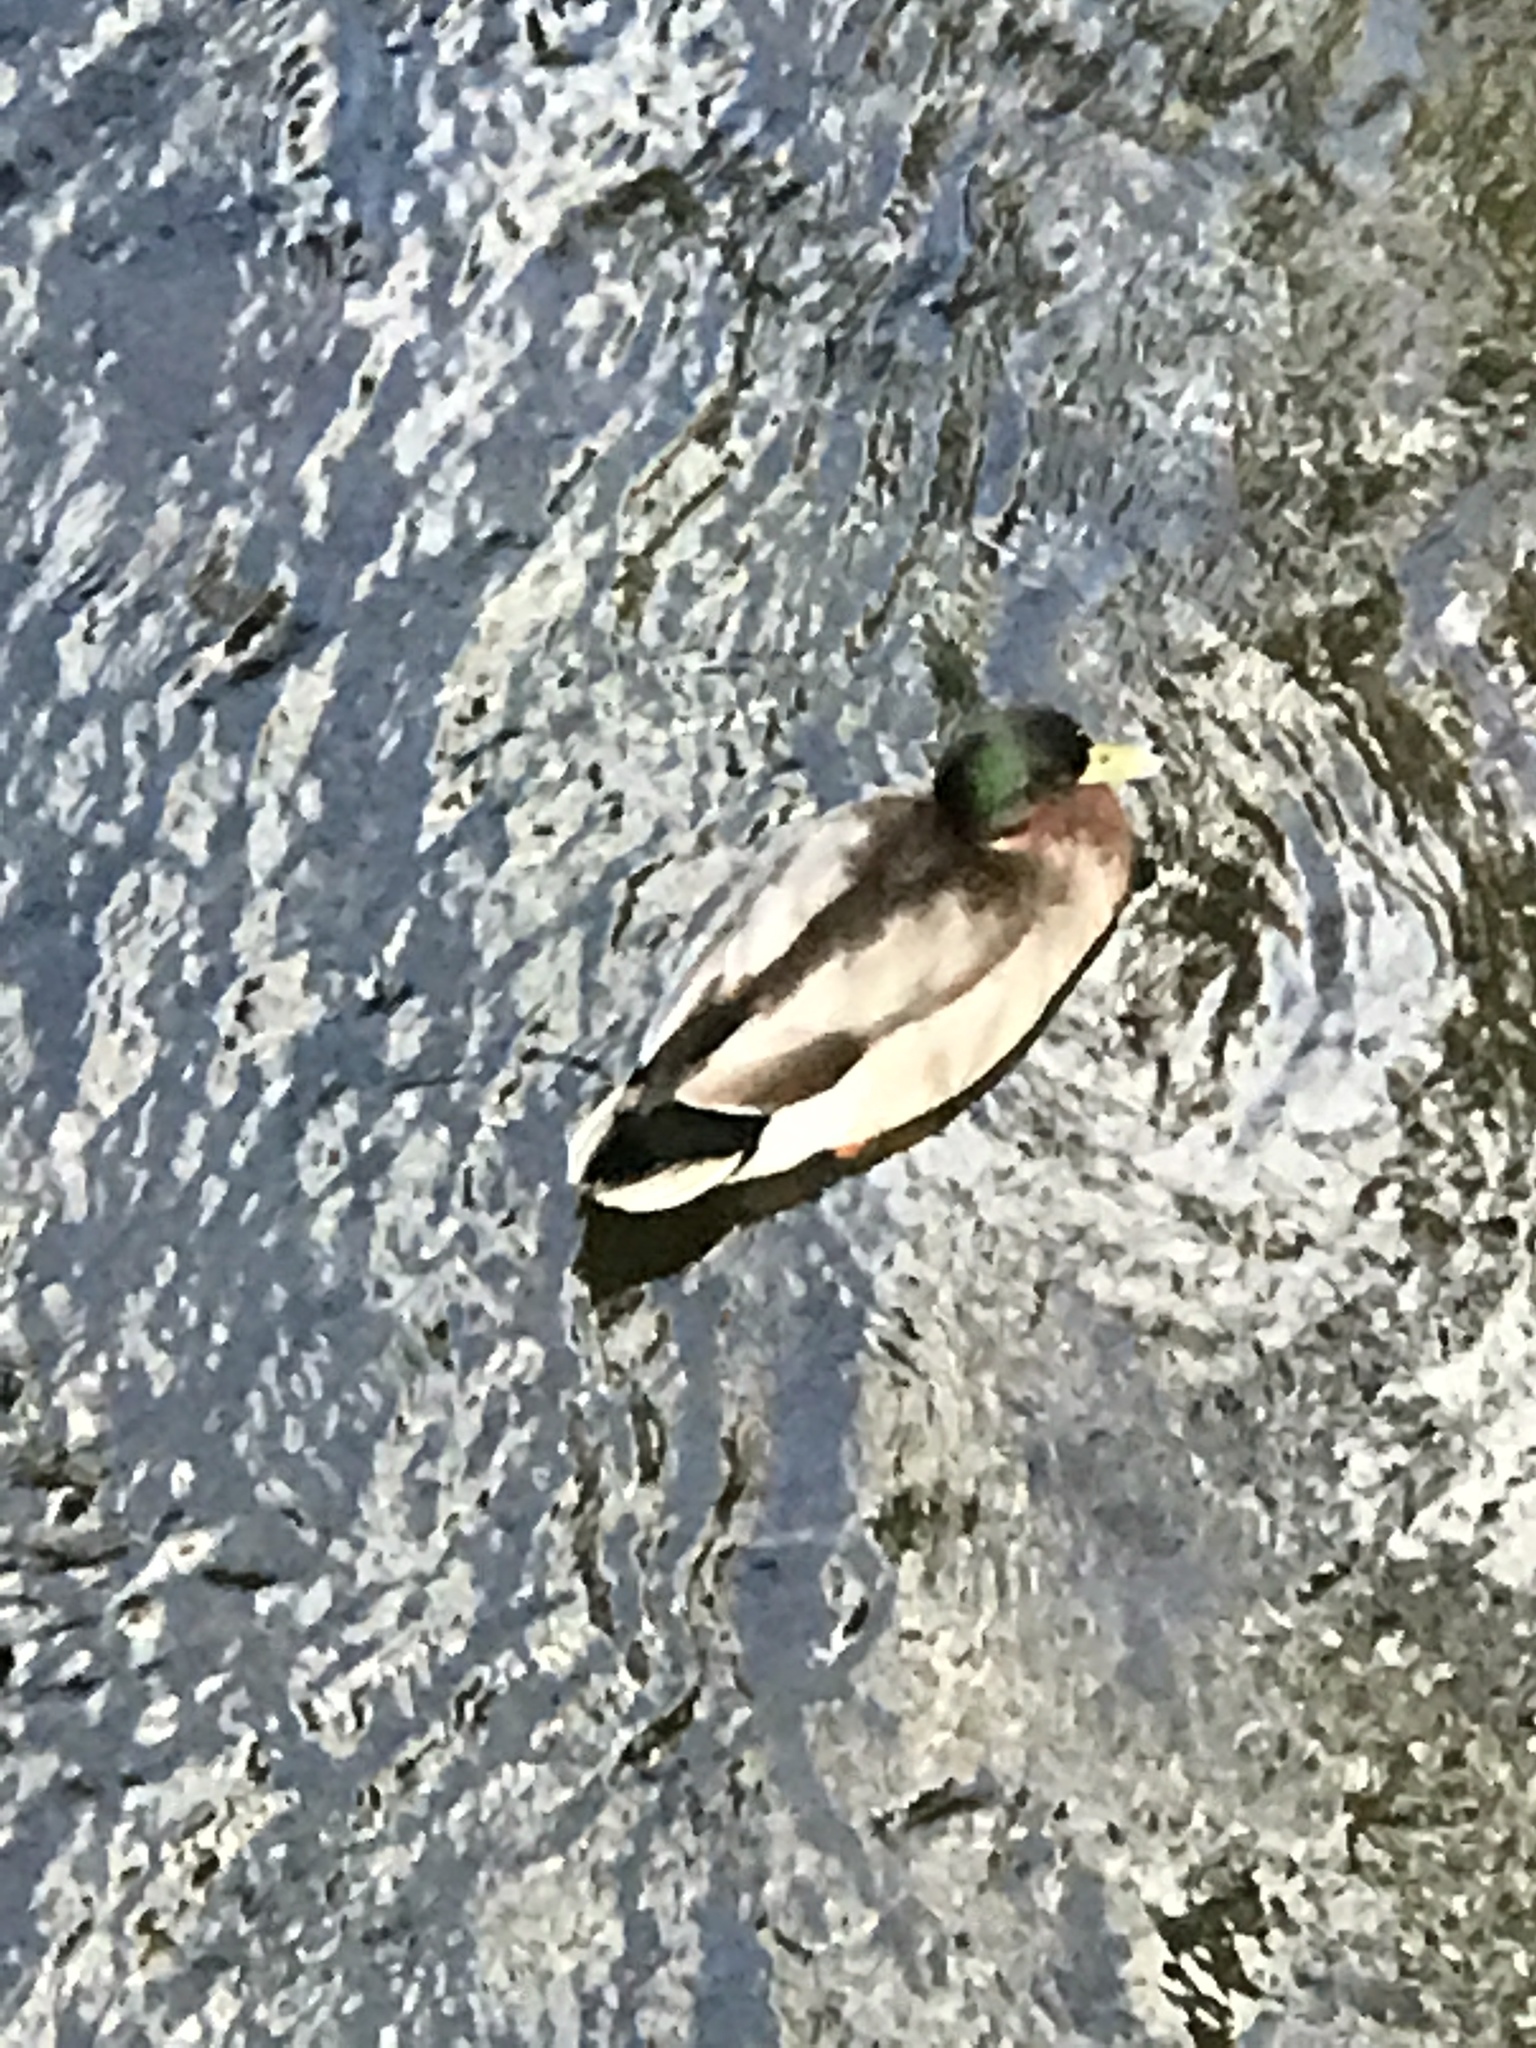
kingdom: Animalia
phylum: Chordata
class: Aves
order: Anseriformes
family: Anatidae
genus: Anas
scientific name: Anas platyrhynchos
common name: Mallard
